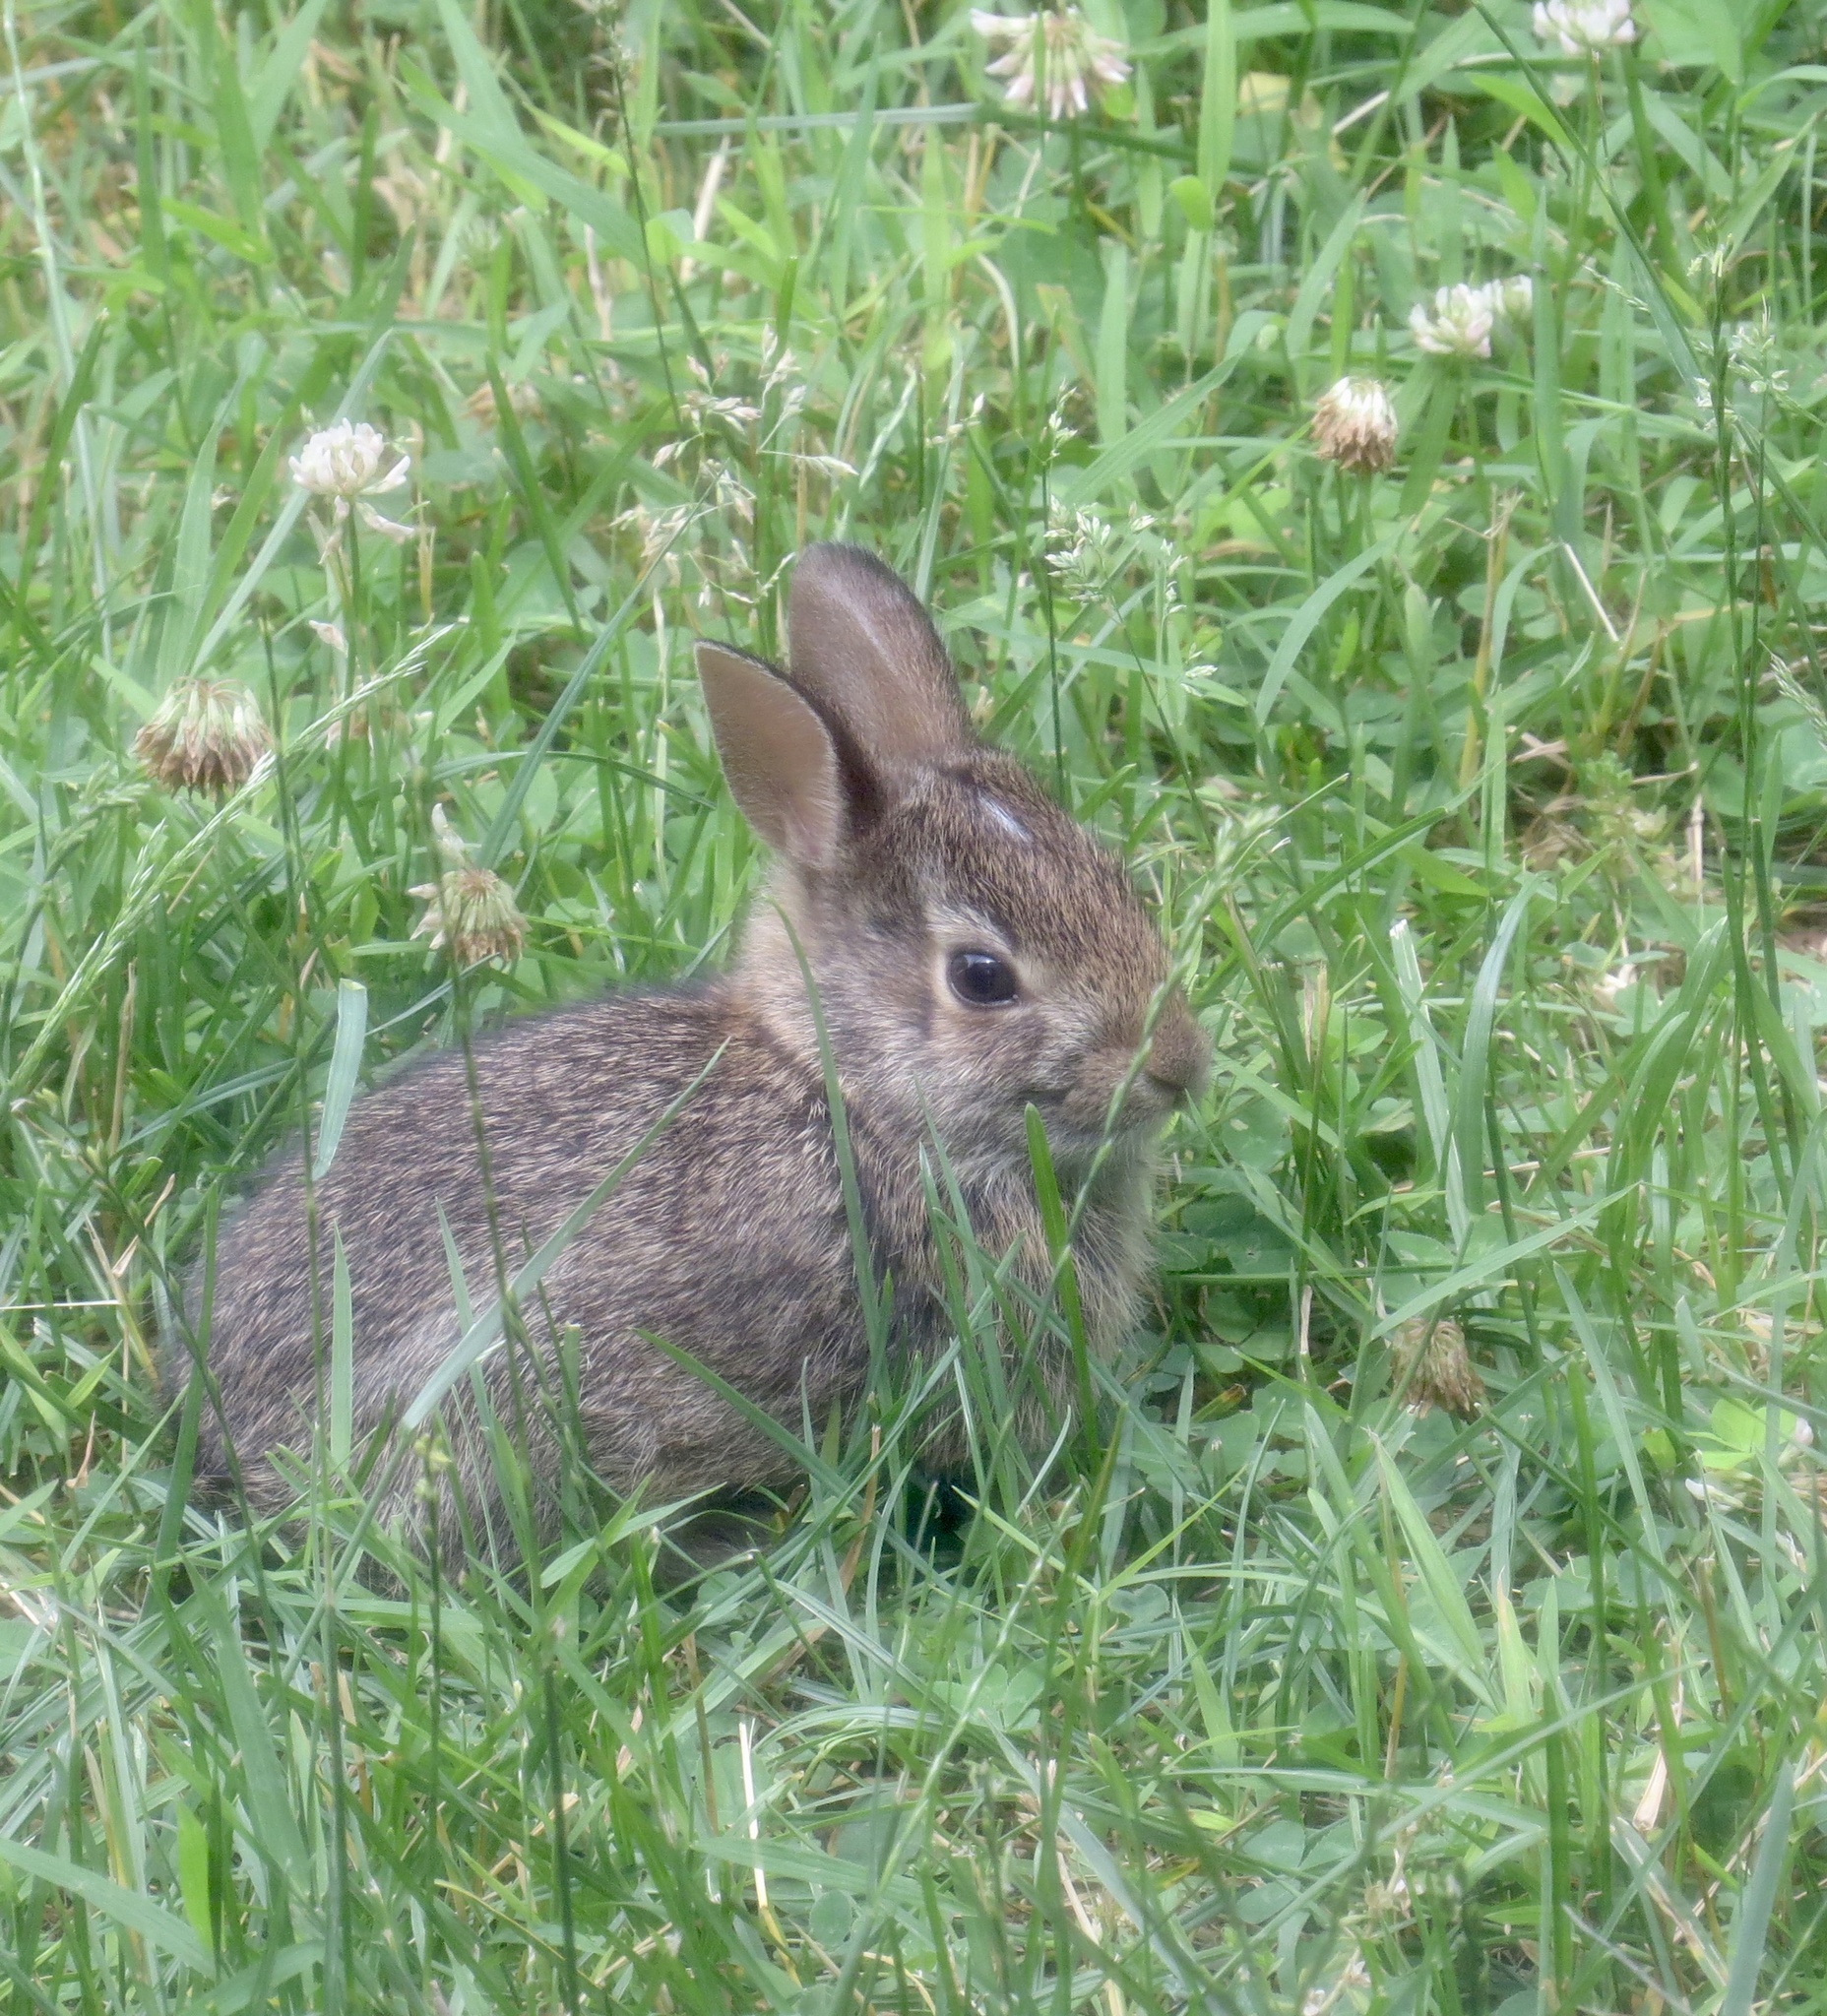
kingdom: Animalia
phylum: Chordata
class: Mammalia
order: Lagomorpha
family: Leporidae
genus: Sylvilagus
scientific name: Sylvilagus floridanus
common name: Eastern cottontail
